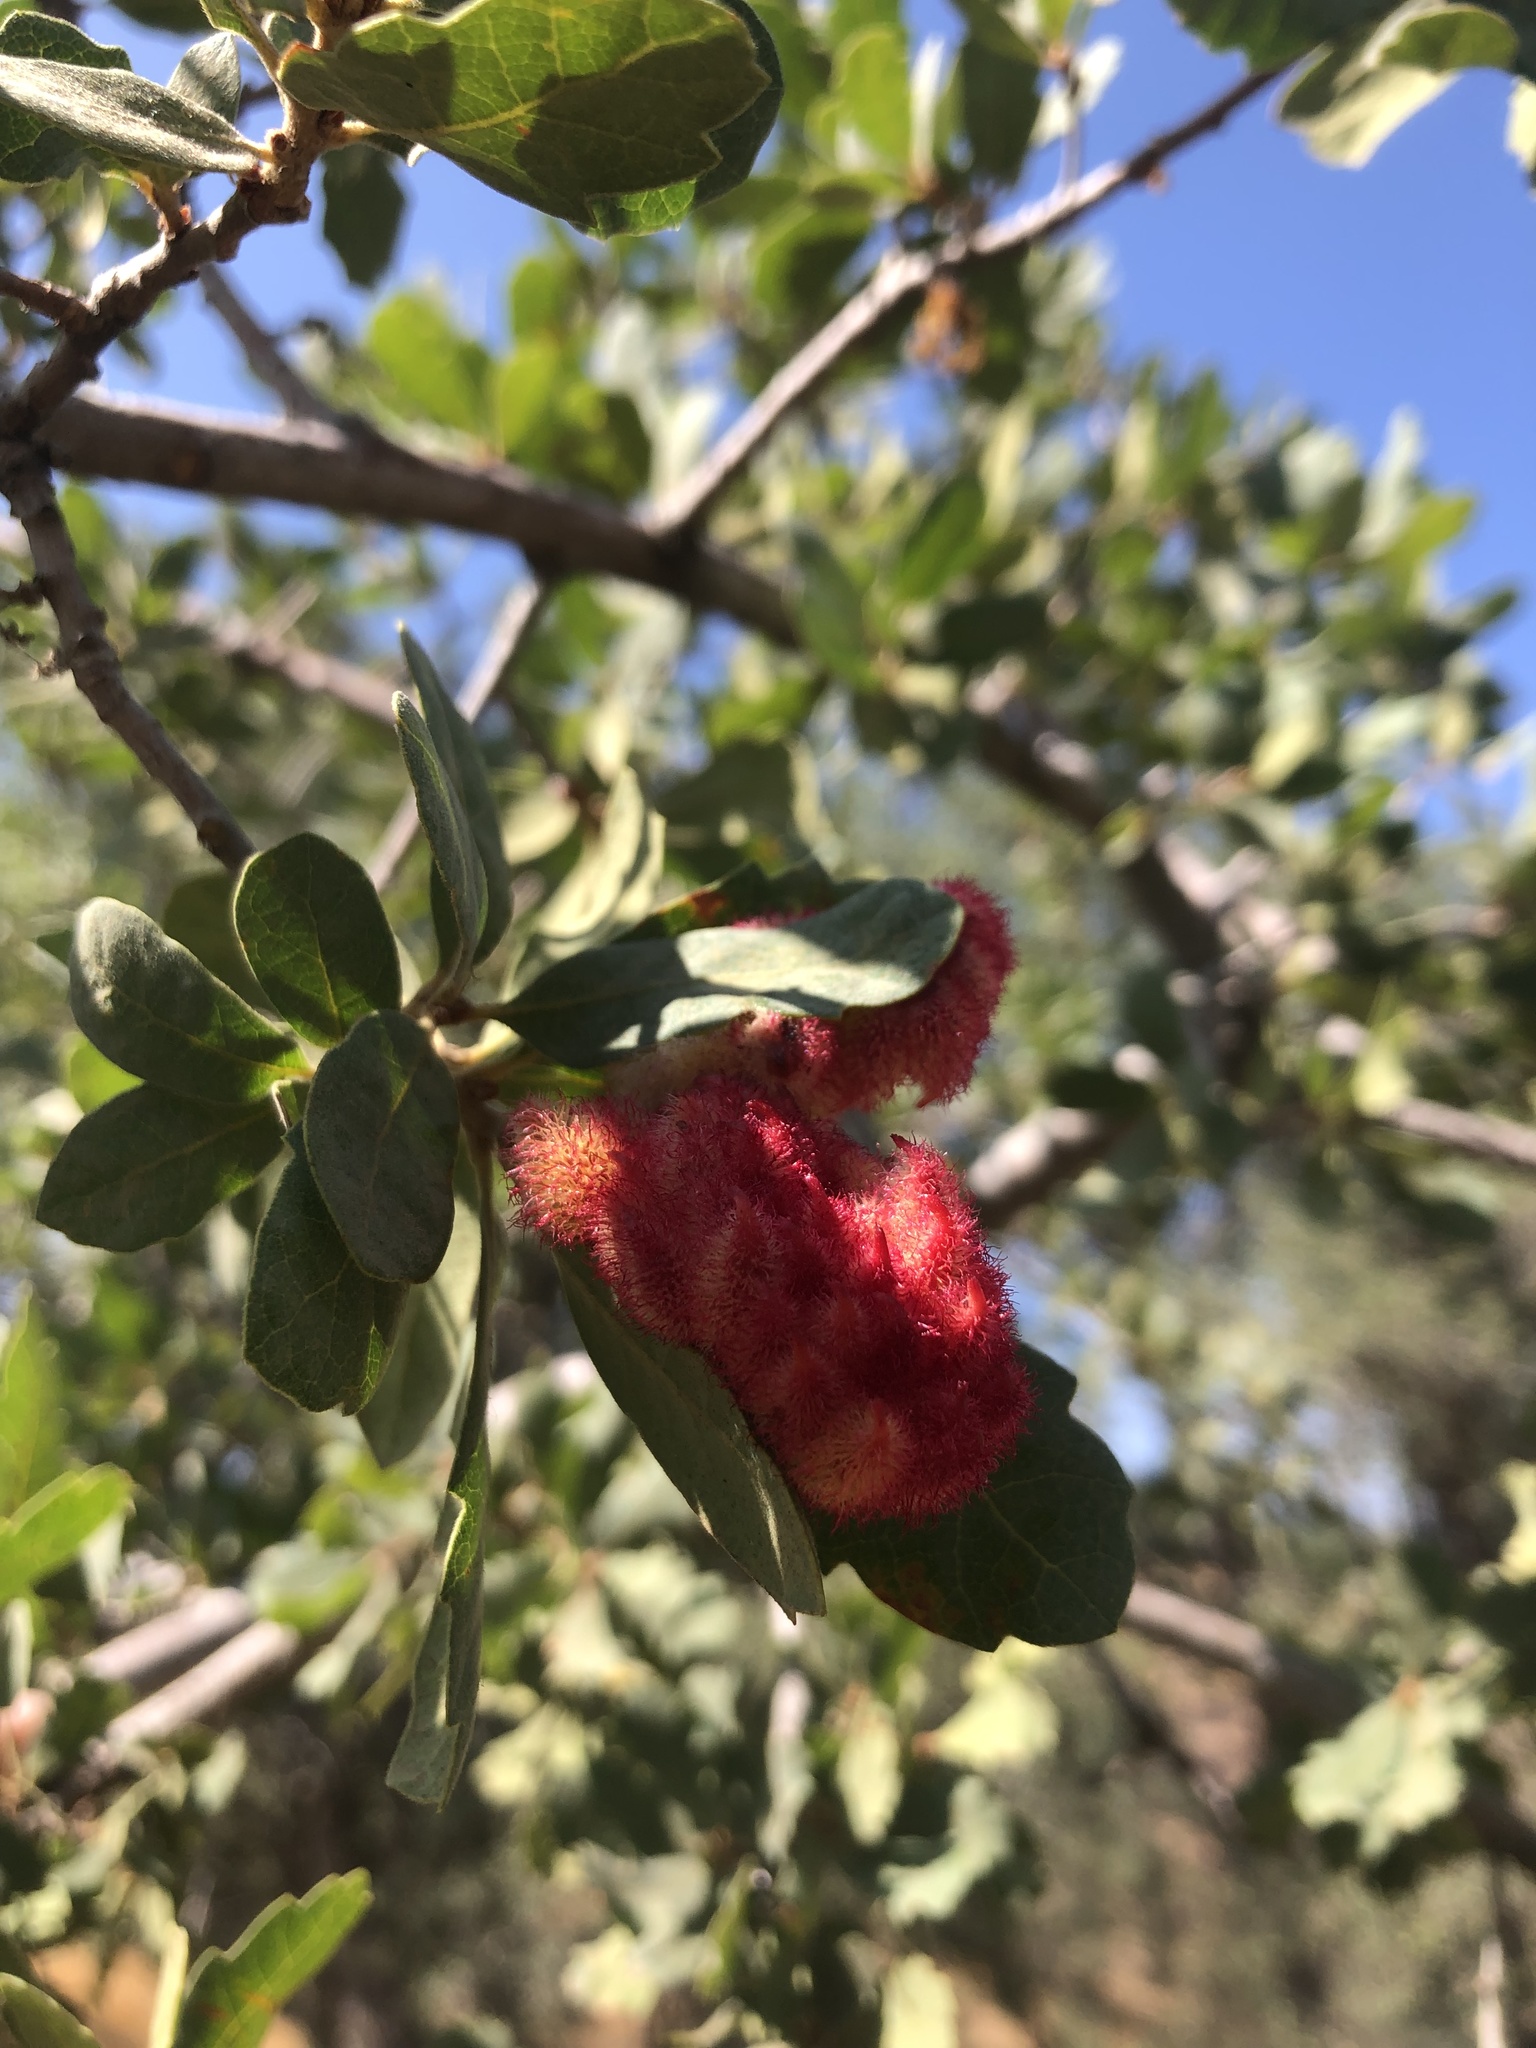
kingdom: Animalia
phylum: Arthropoda
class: Insecta
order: Hymenoptera
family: Cynipidae
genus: Andricus
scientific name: Andricus
